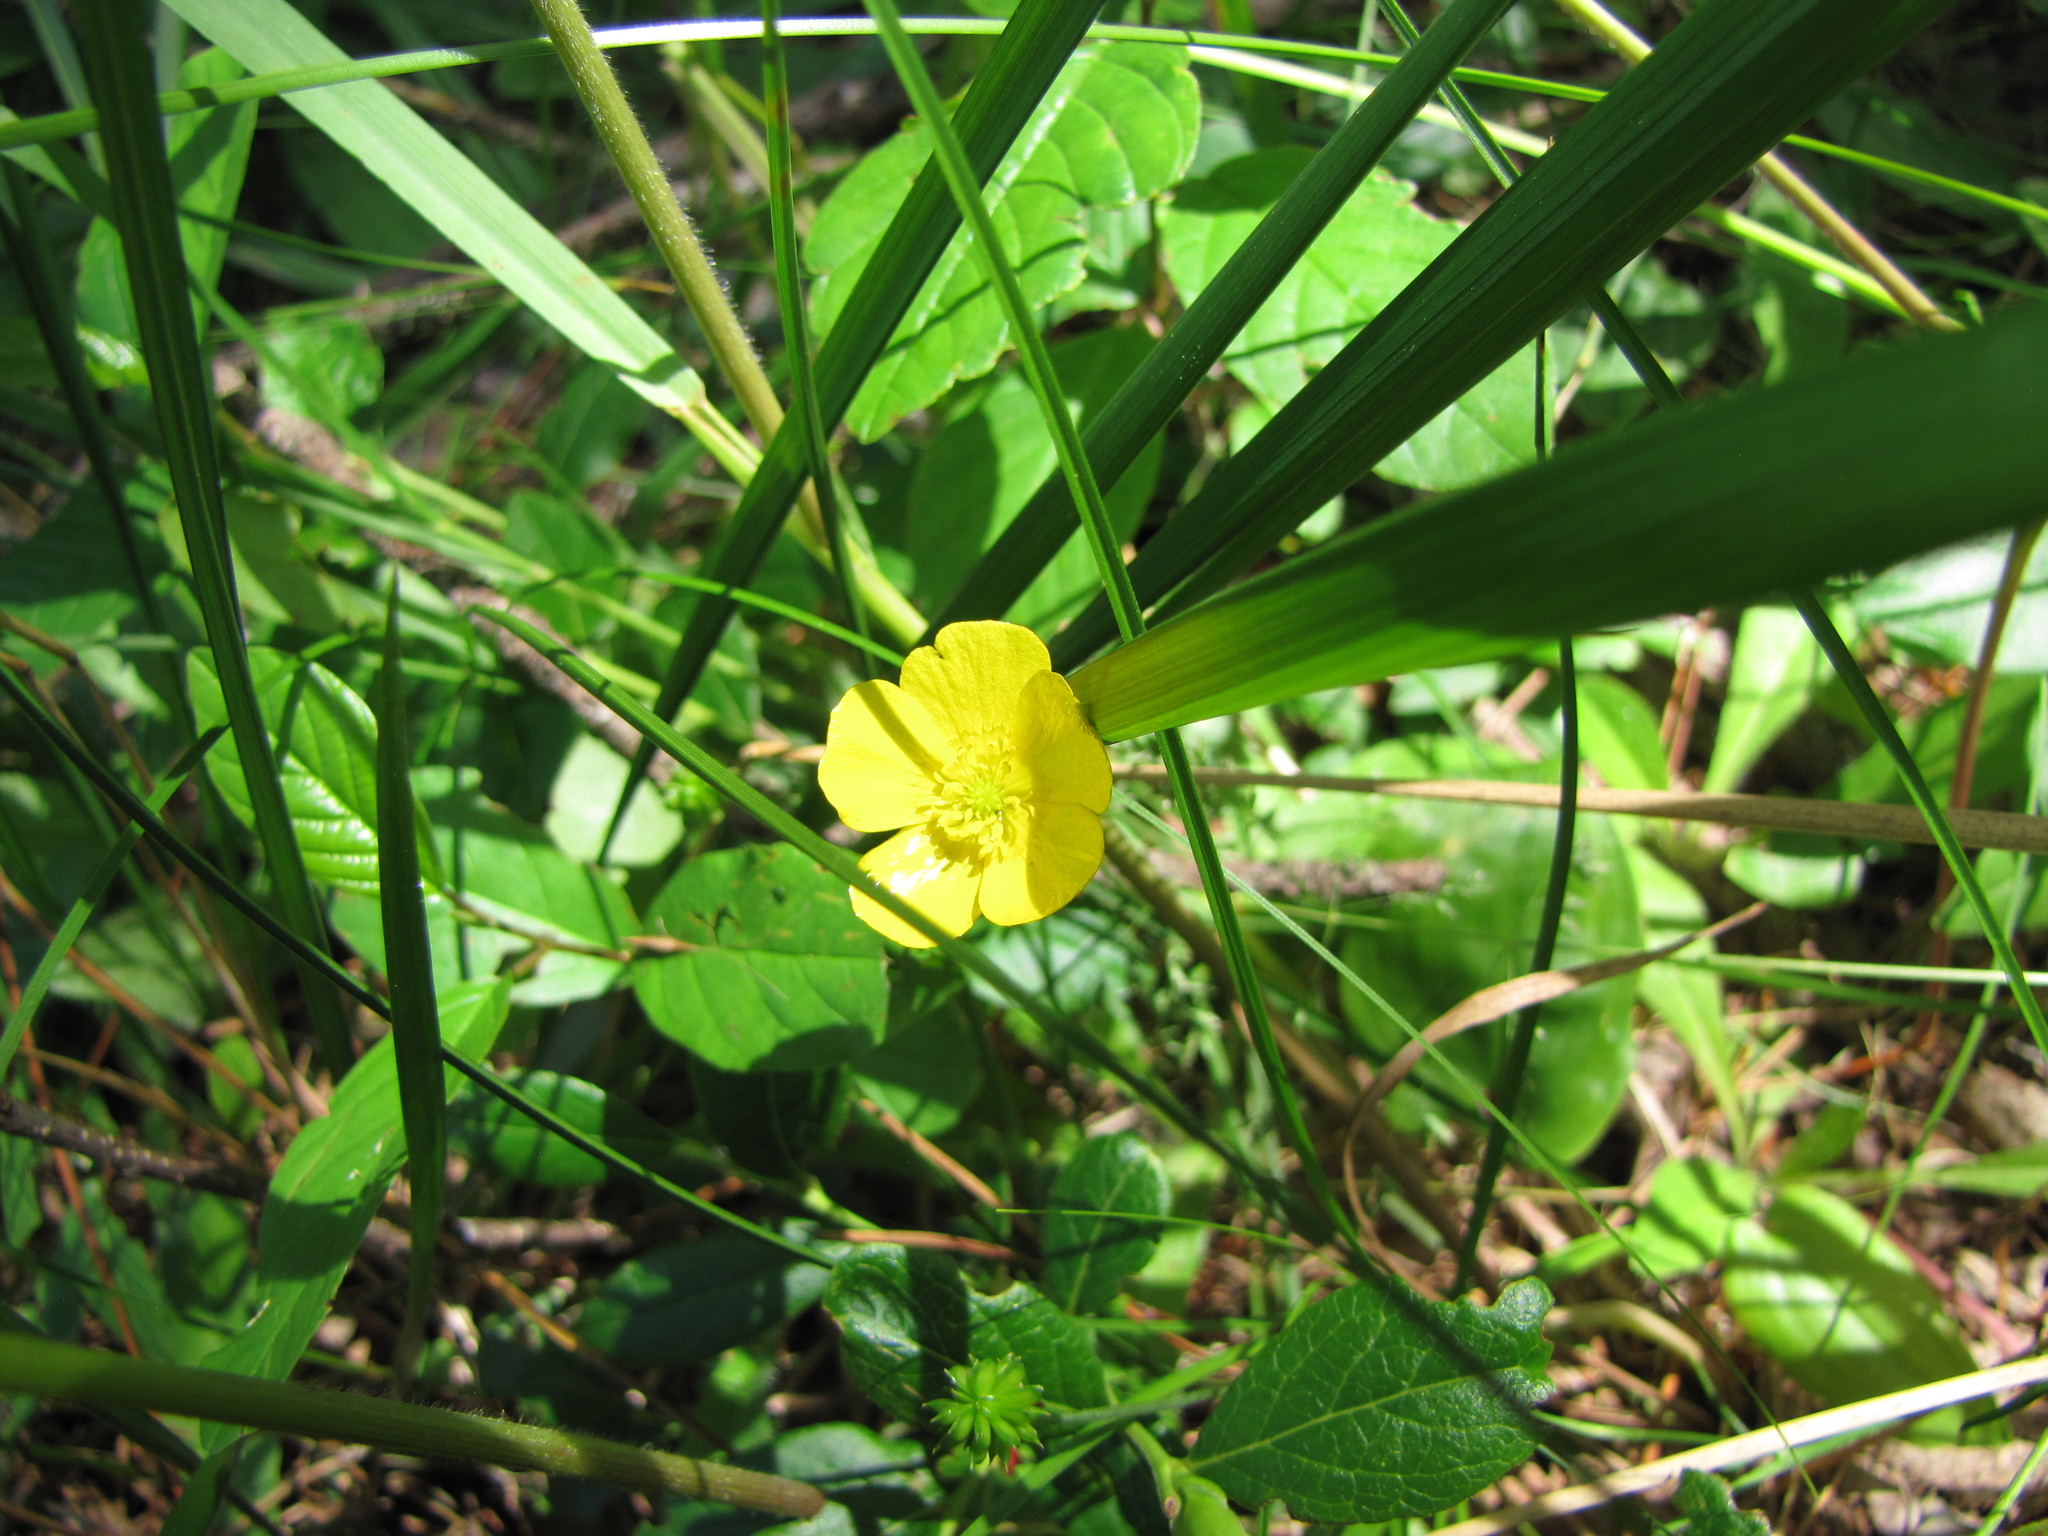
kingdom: Plantae
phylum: Tracheophyta
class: Magnoliopsida
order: Ranunculales
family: Ranunculaceae
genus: Ranunculus
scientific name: Ranunculus acris
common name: Meadow buttercup
